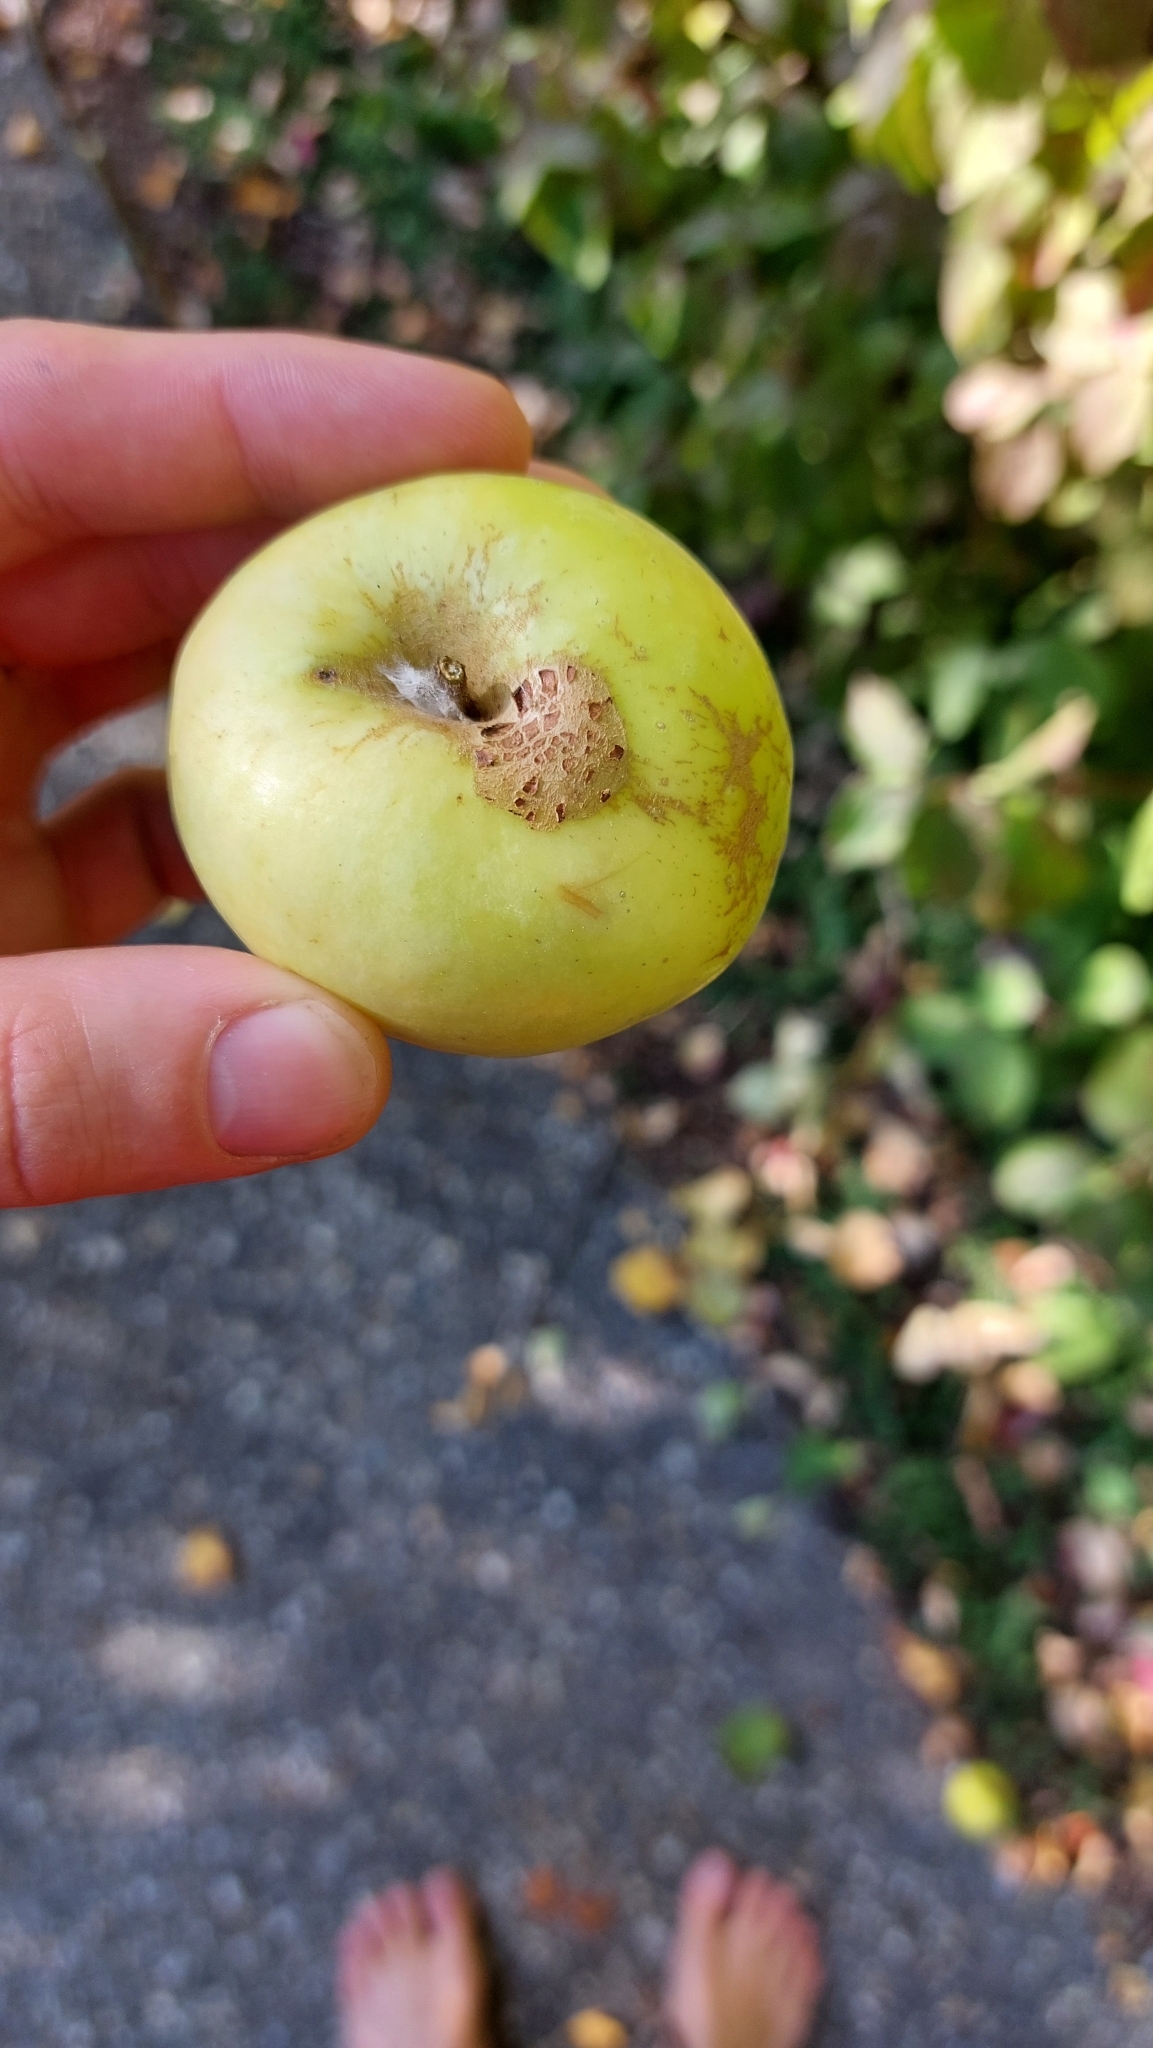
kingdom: Plantae
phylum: Tracheophyta
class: Magnoliopsida
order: Rosales
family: Rosaceae
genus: Malus
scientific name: Malus domestica
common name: Apple
